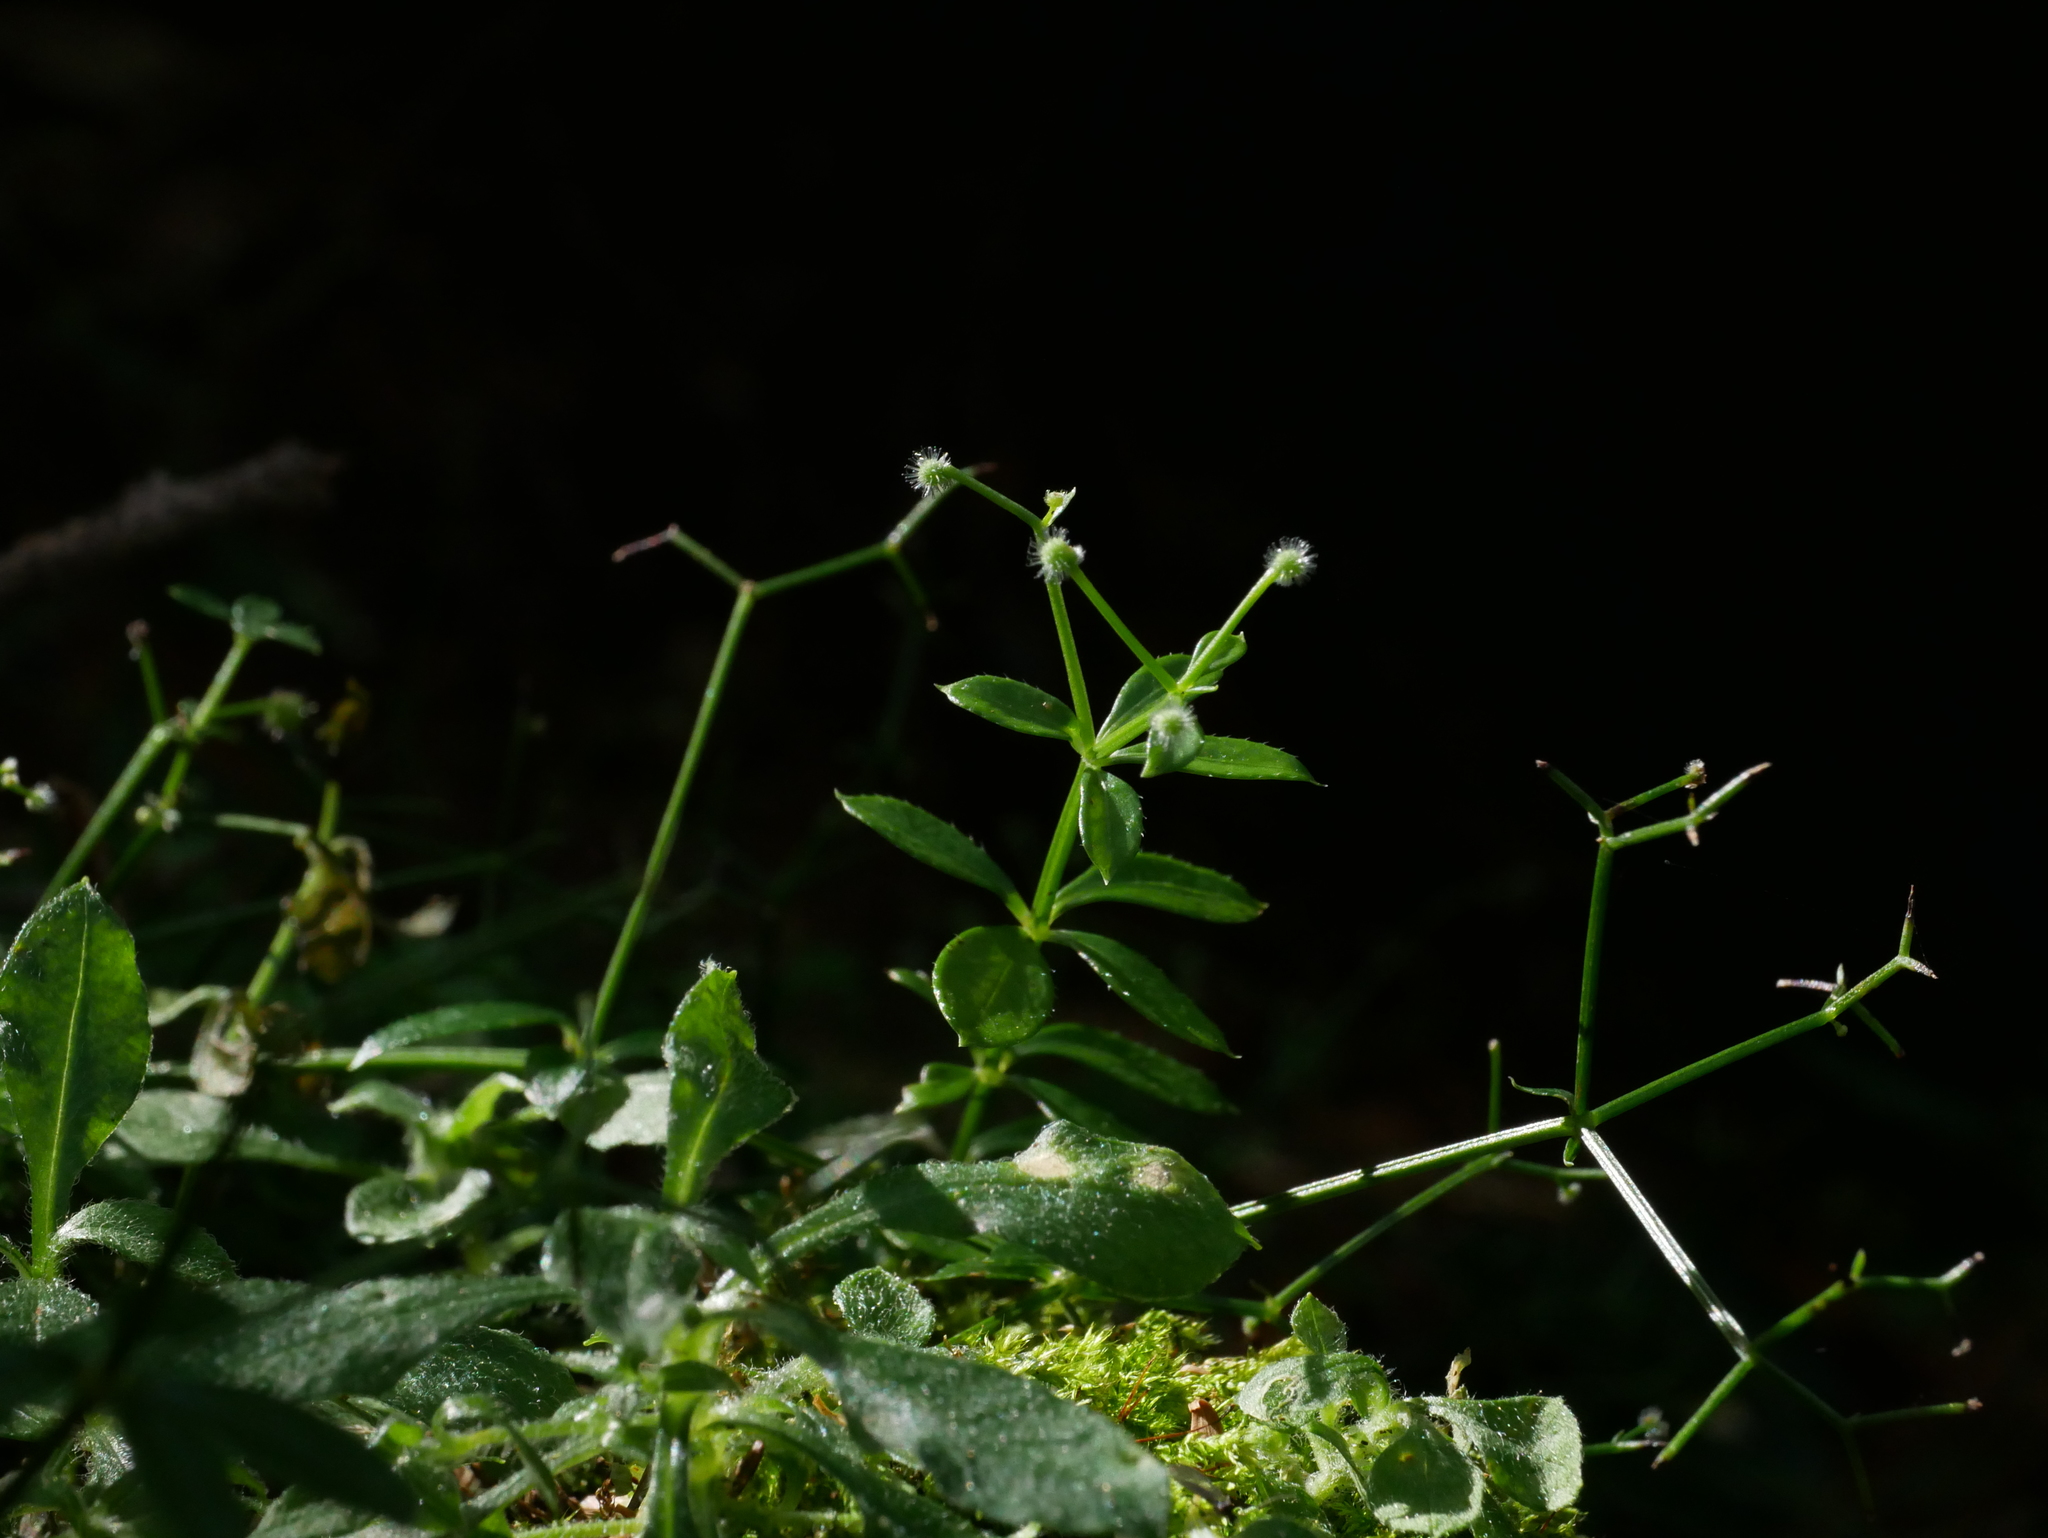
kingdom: Plantae
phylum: Tracheophyta
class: Magnoliopsida
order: Gentianales
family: Rubiaceae
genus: Galium
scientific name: Galium echinocarpum
